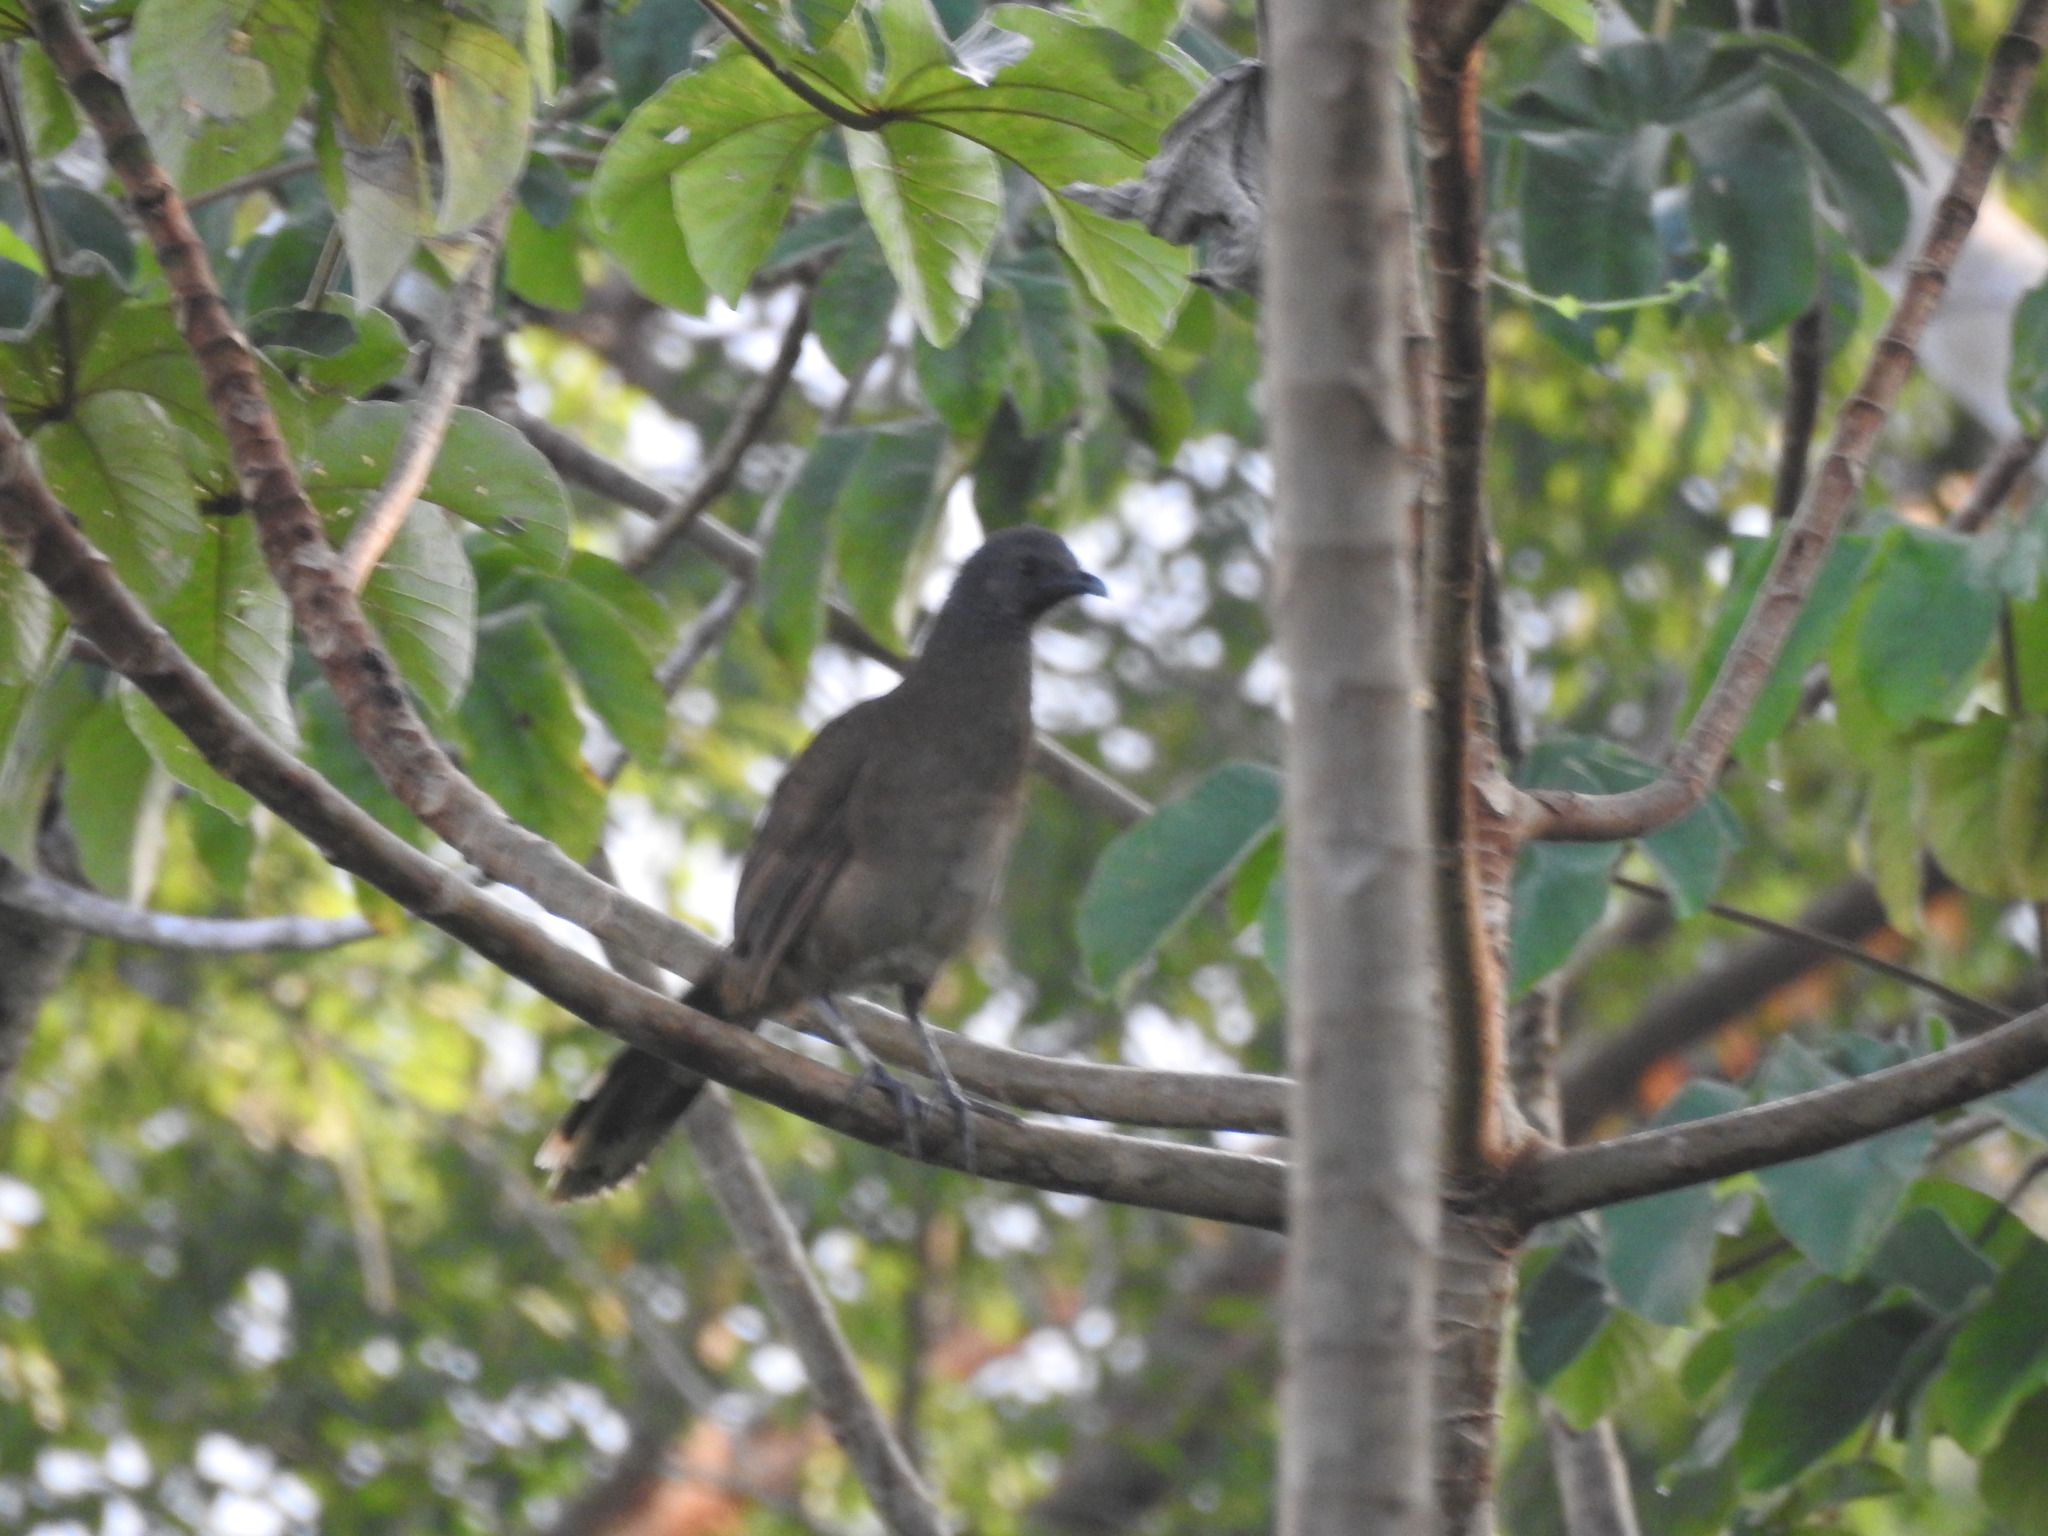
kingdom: Animalia
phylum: Chordata
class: Aves
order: Galliformes
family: Cracidae
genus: Ortalis
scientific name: Ortalis vetula
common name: Plain chachalaca
